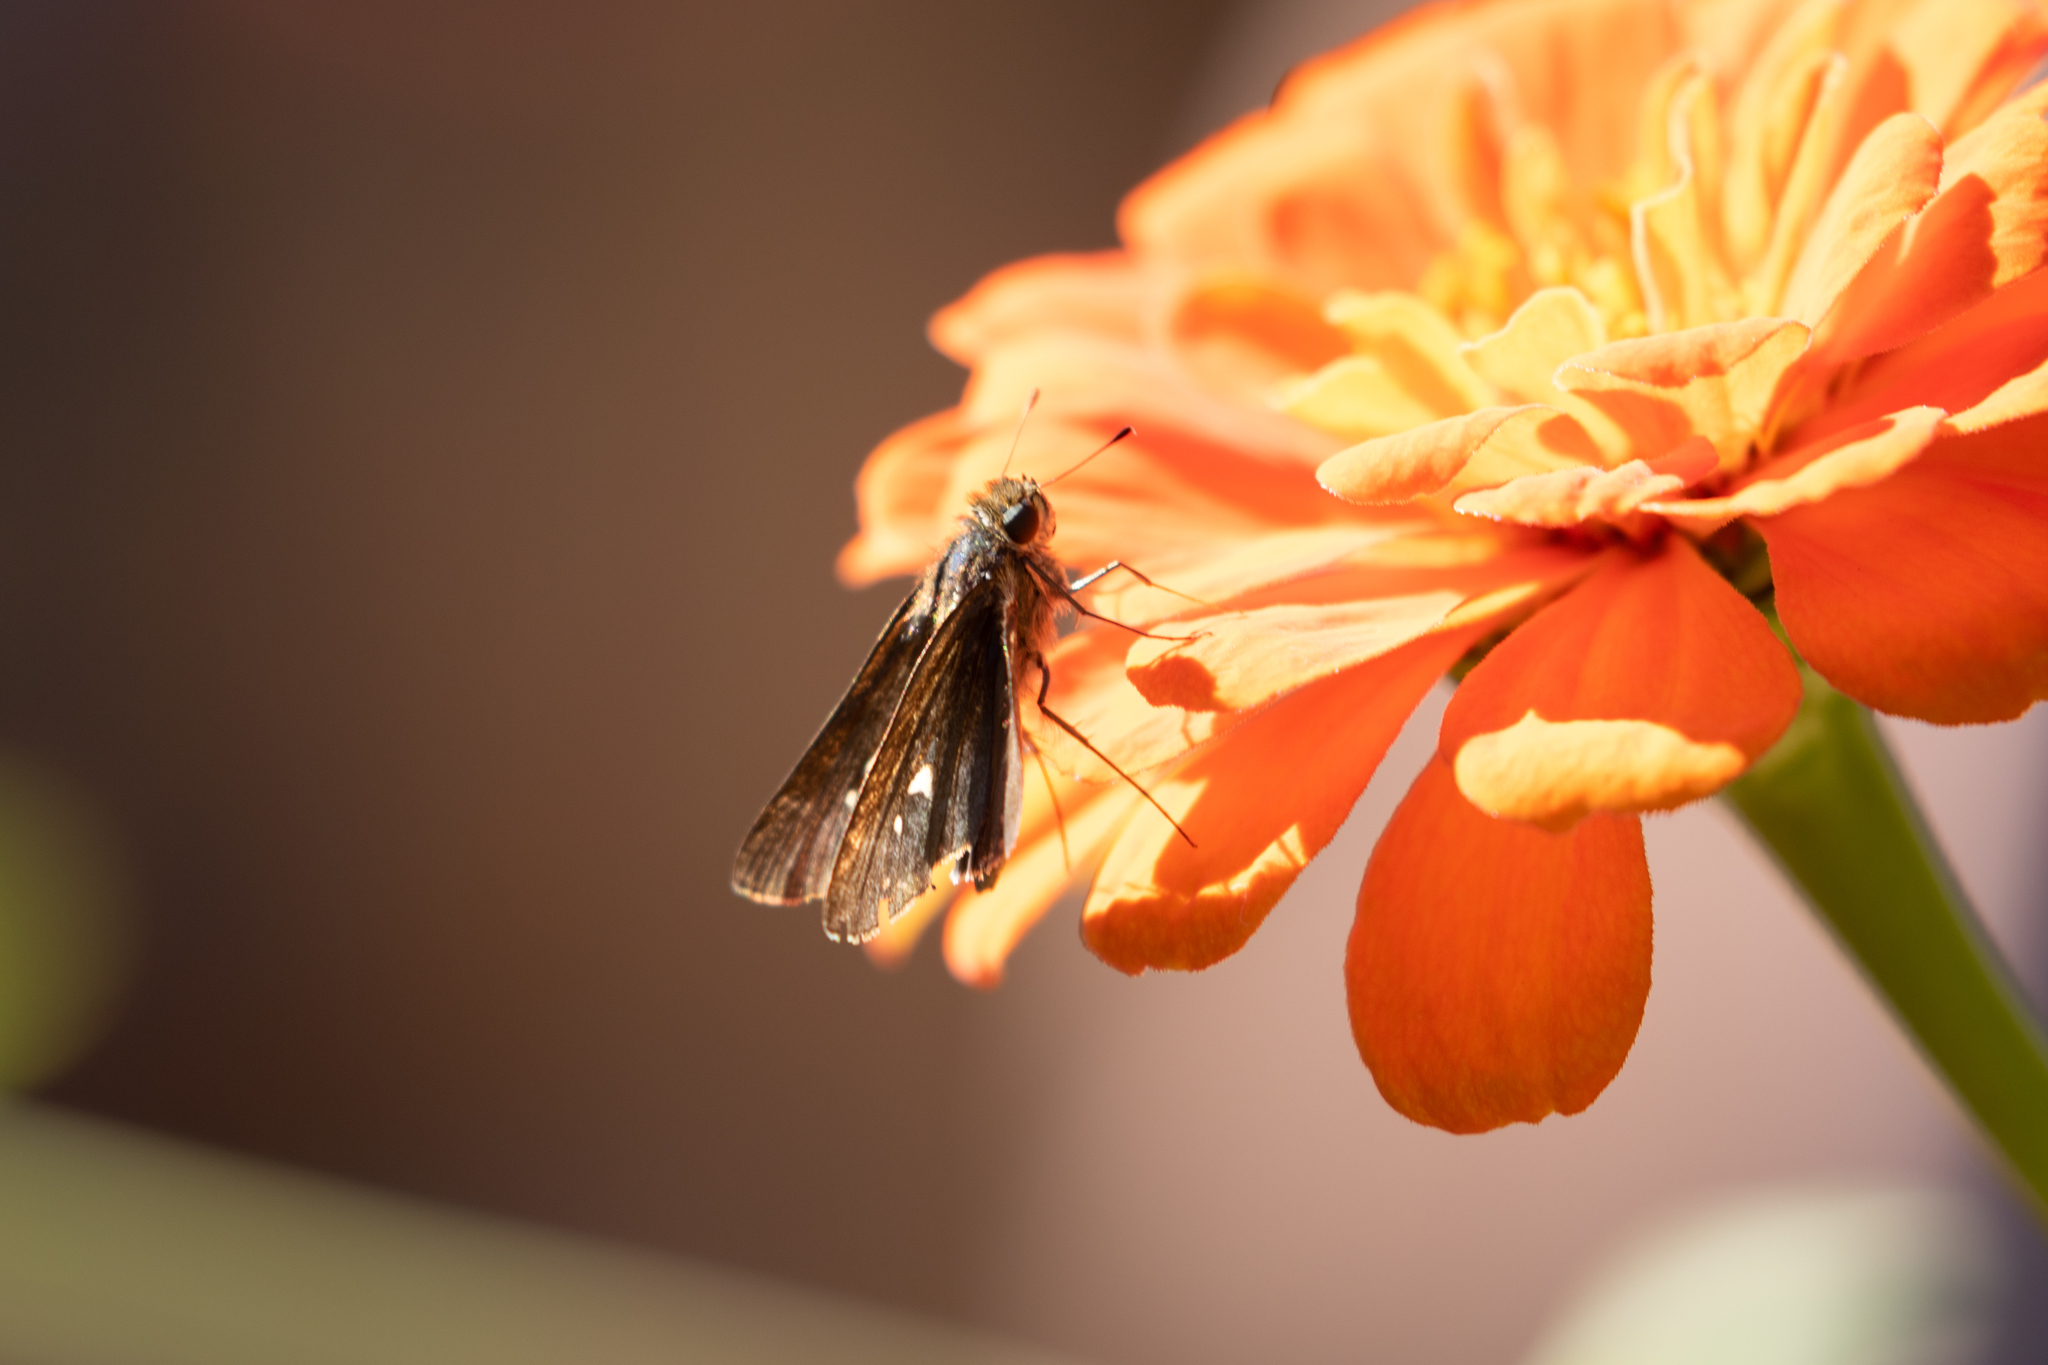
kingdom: Animalia
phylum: Arthropoda
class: Insecta
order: Lepidoptera
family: Hesperiidae
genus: Panoquina
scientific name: Panoquina ocola
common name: Ocola skipper
